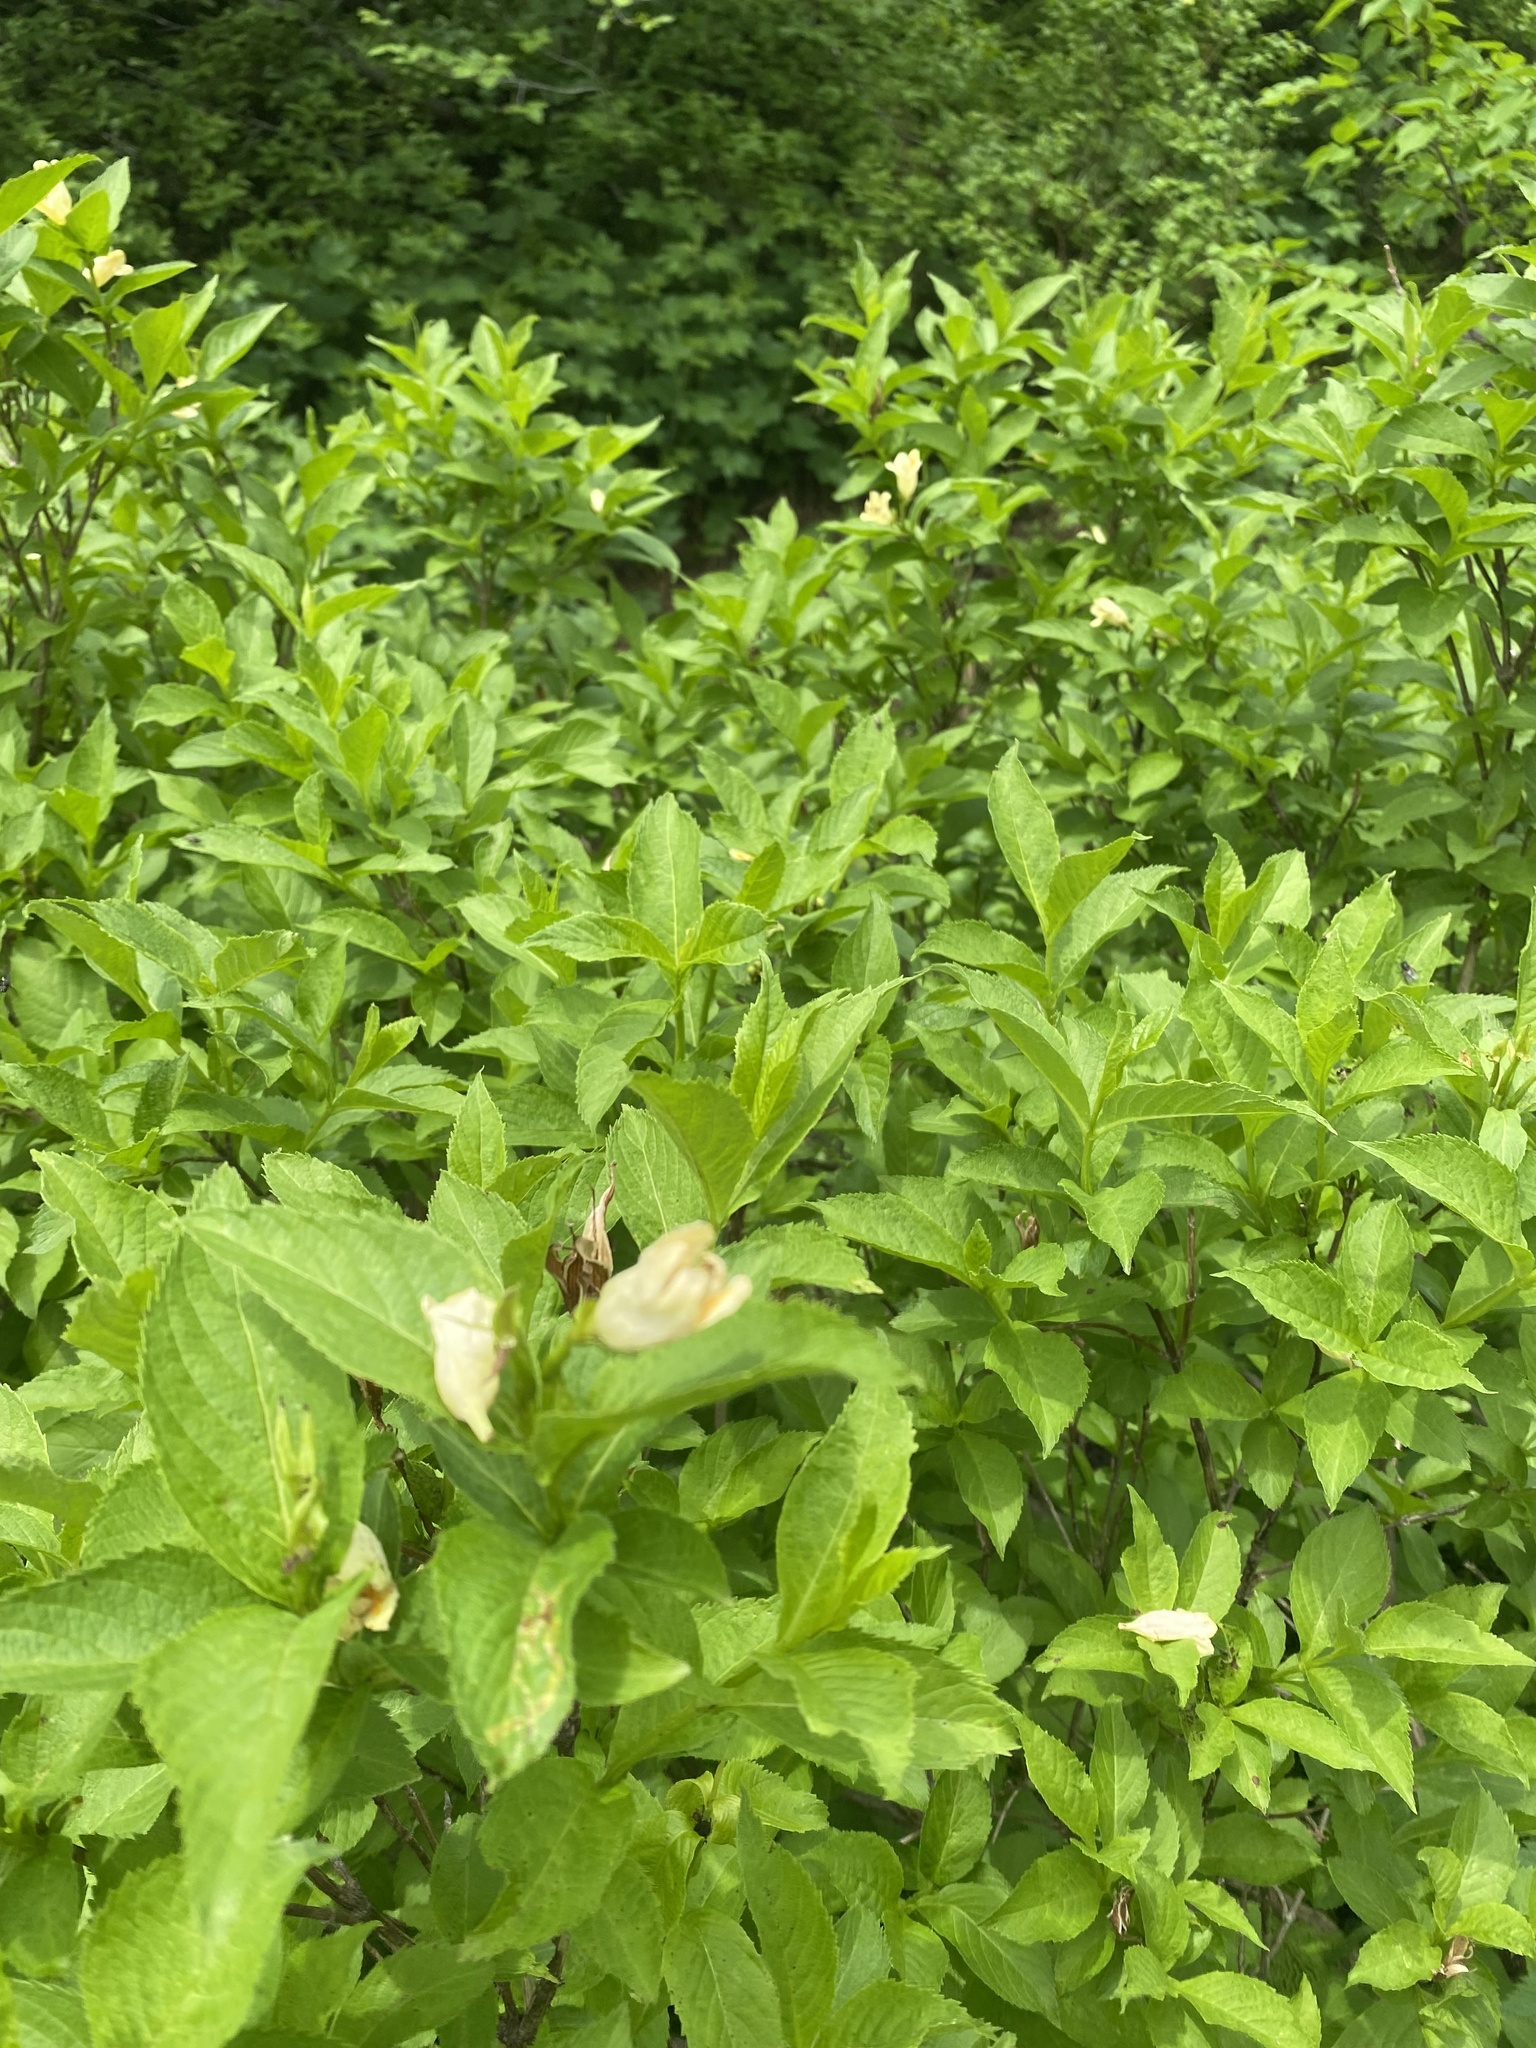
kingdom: Plantae
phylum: Tracheophyta
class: Magnoliopsida
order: Dipsacales
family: Caprifoliaceae
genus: Weigela
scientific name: Weigela middendorffiana
